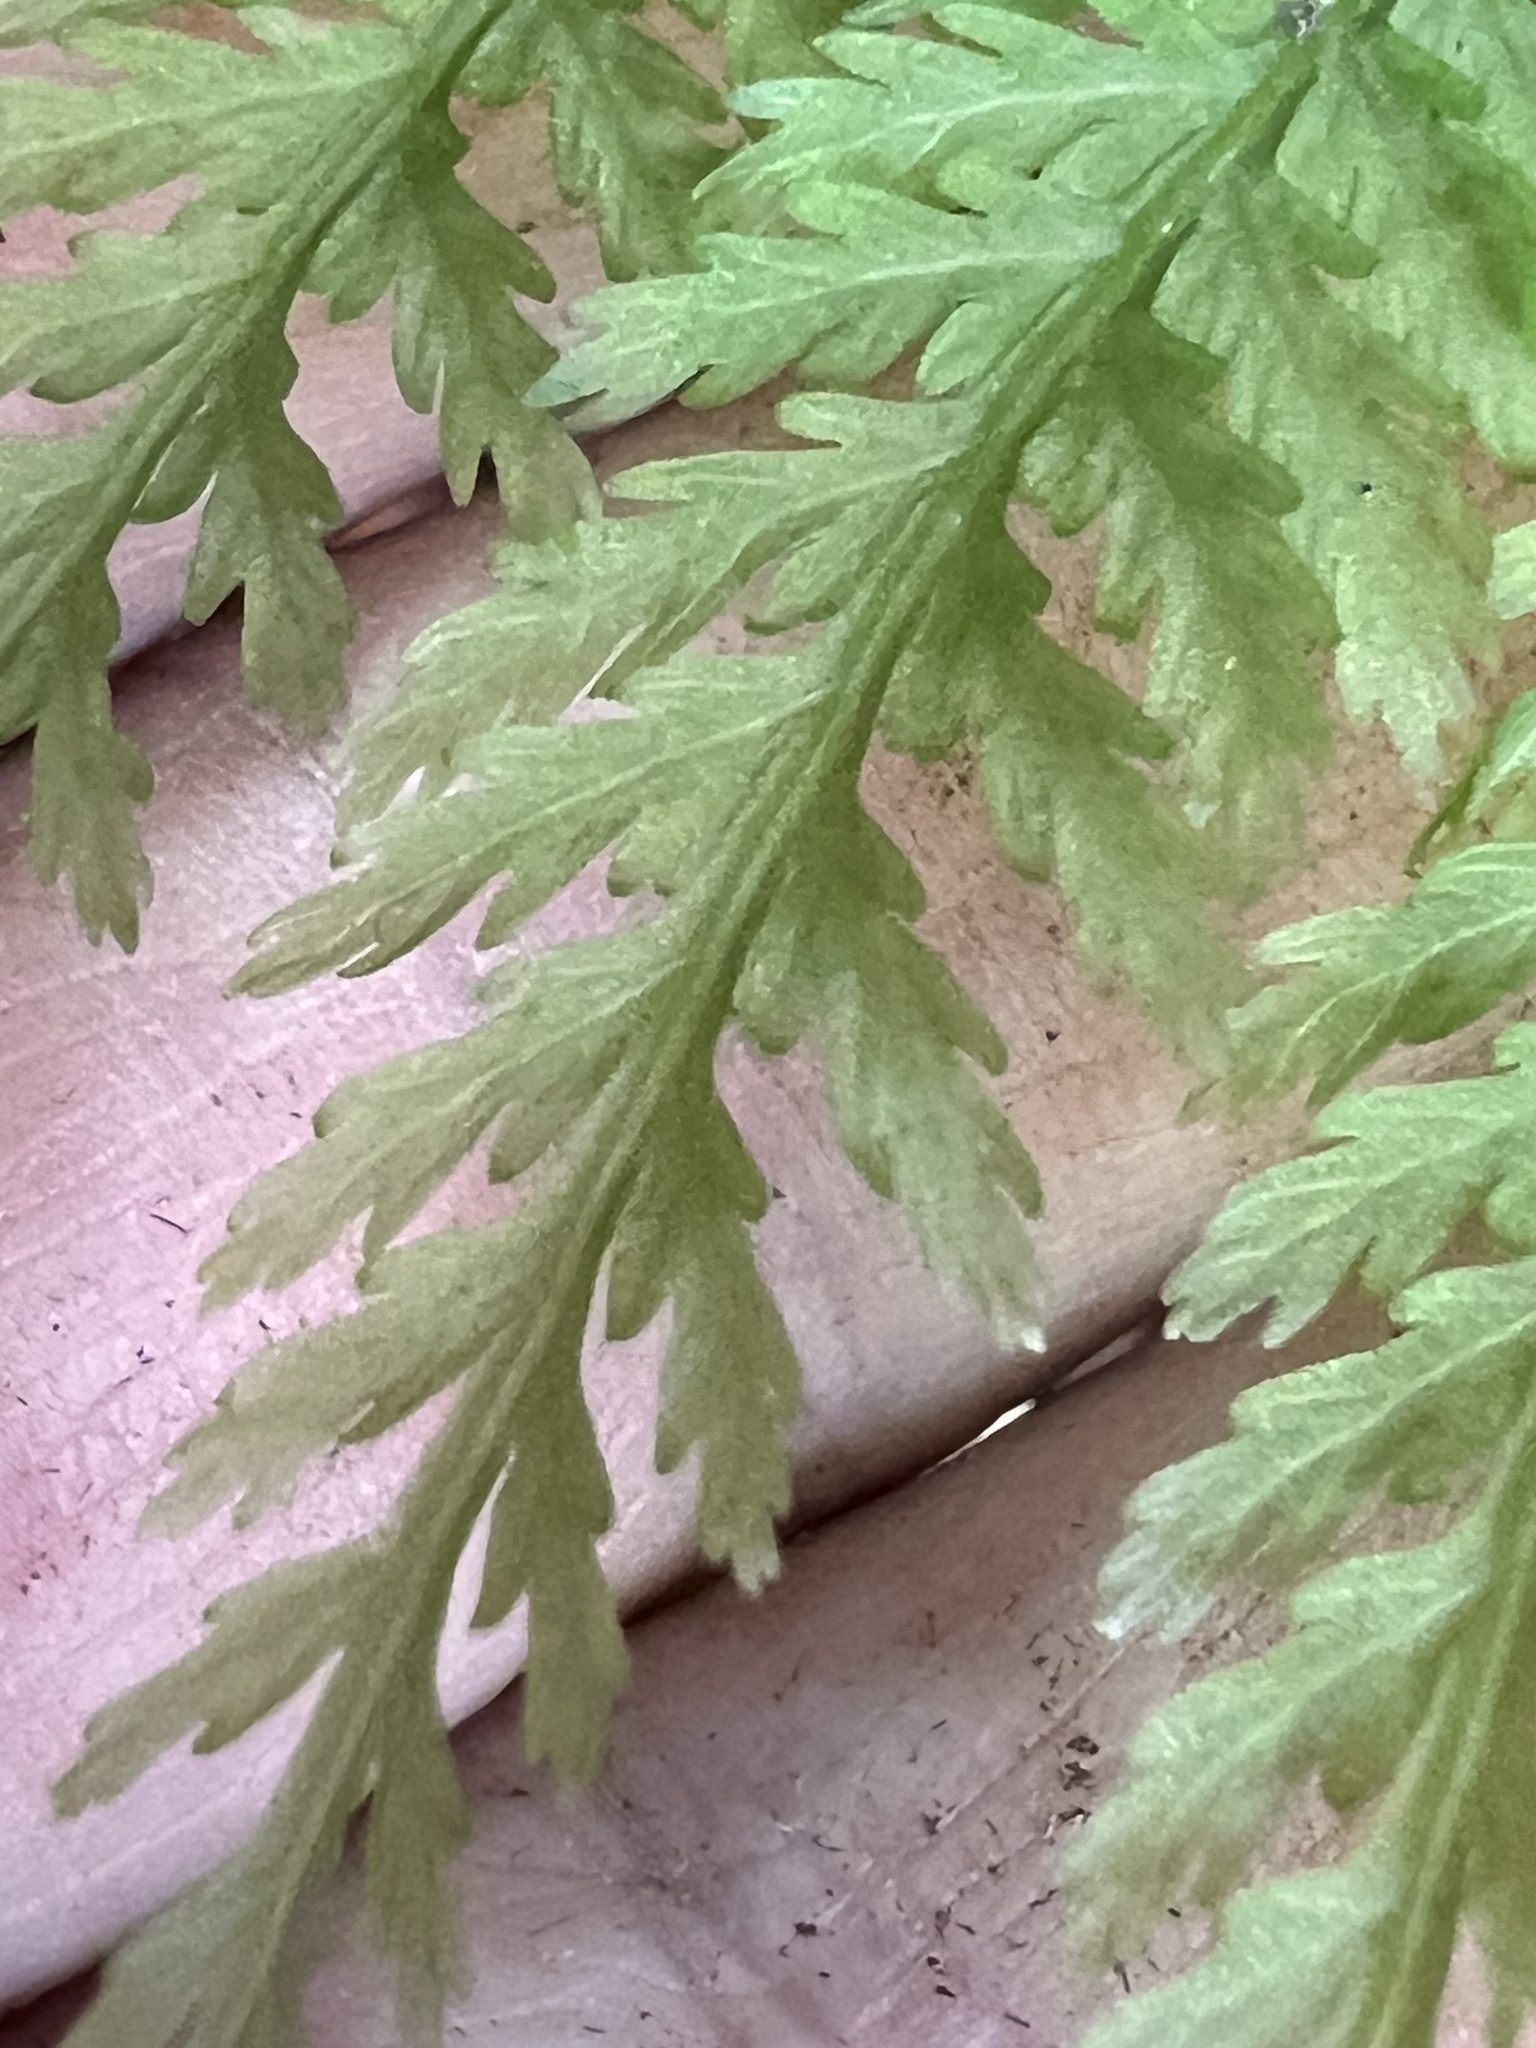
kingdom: Plantae
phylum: Tracheophyta
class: Polypodiopsida
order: Osmundales
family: Osmundaceae
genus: Leptopteris
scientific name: Leptopteris hymenophylloides
